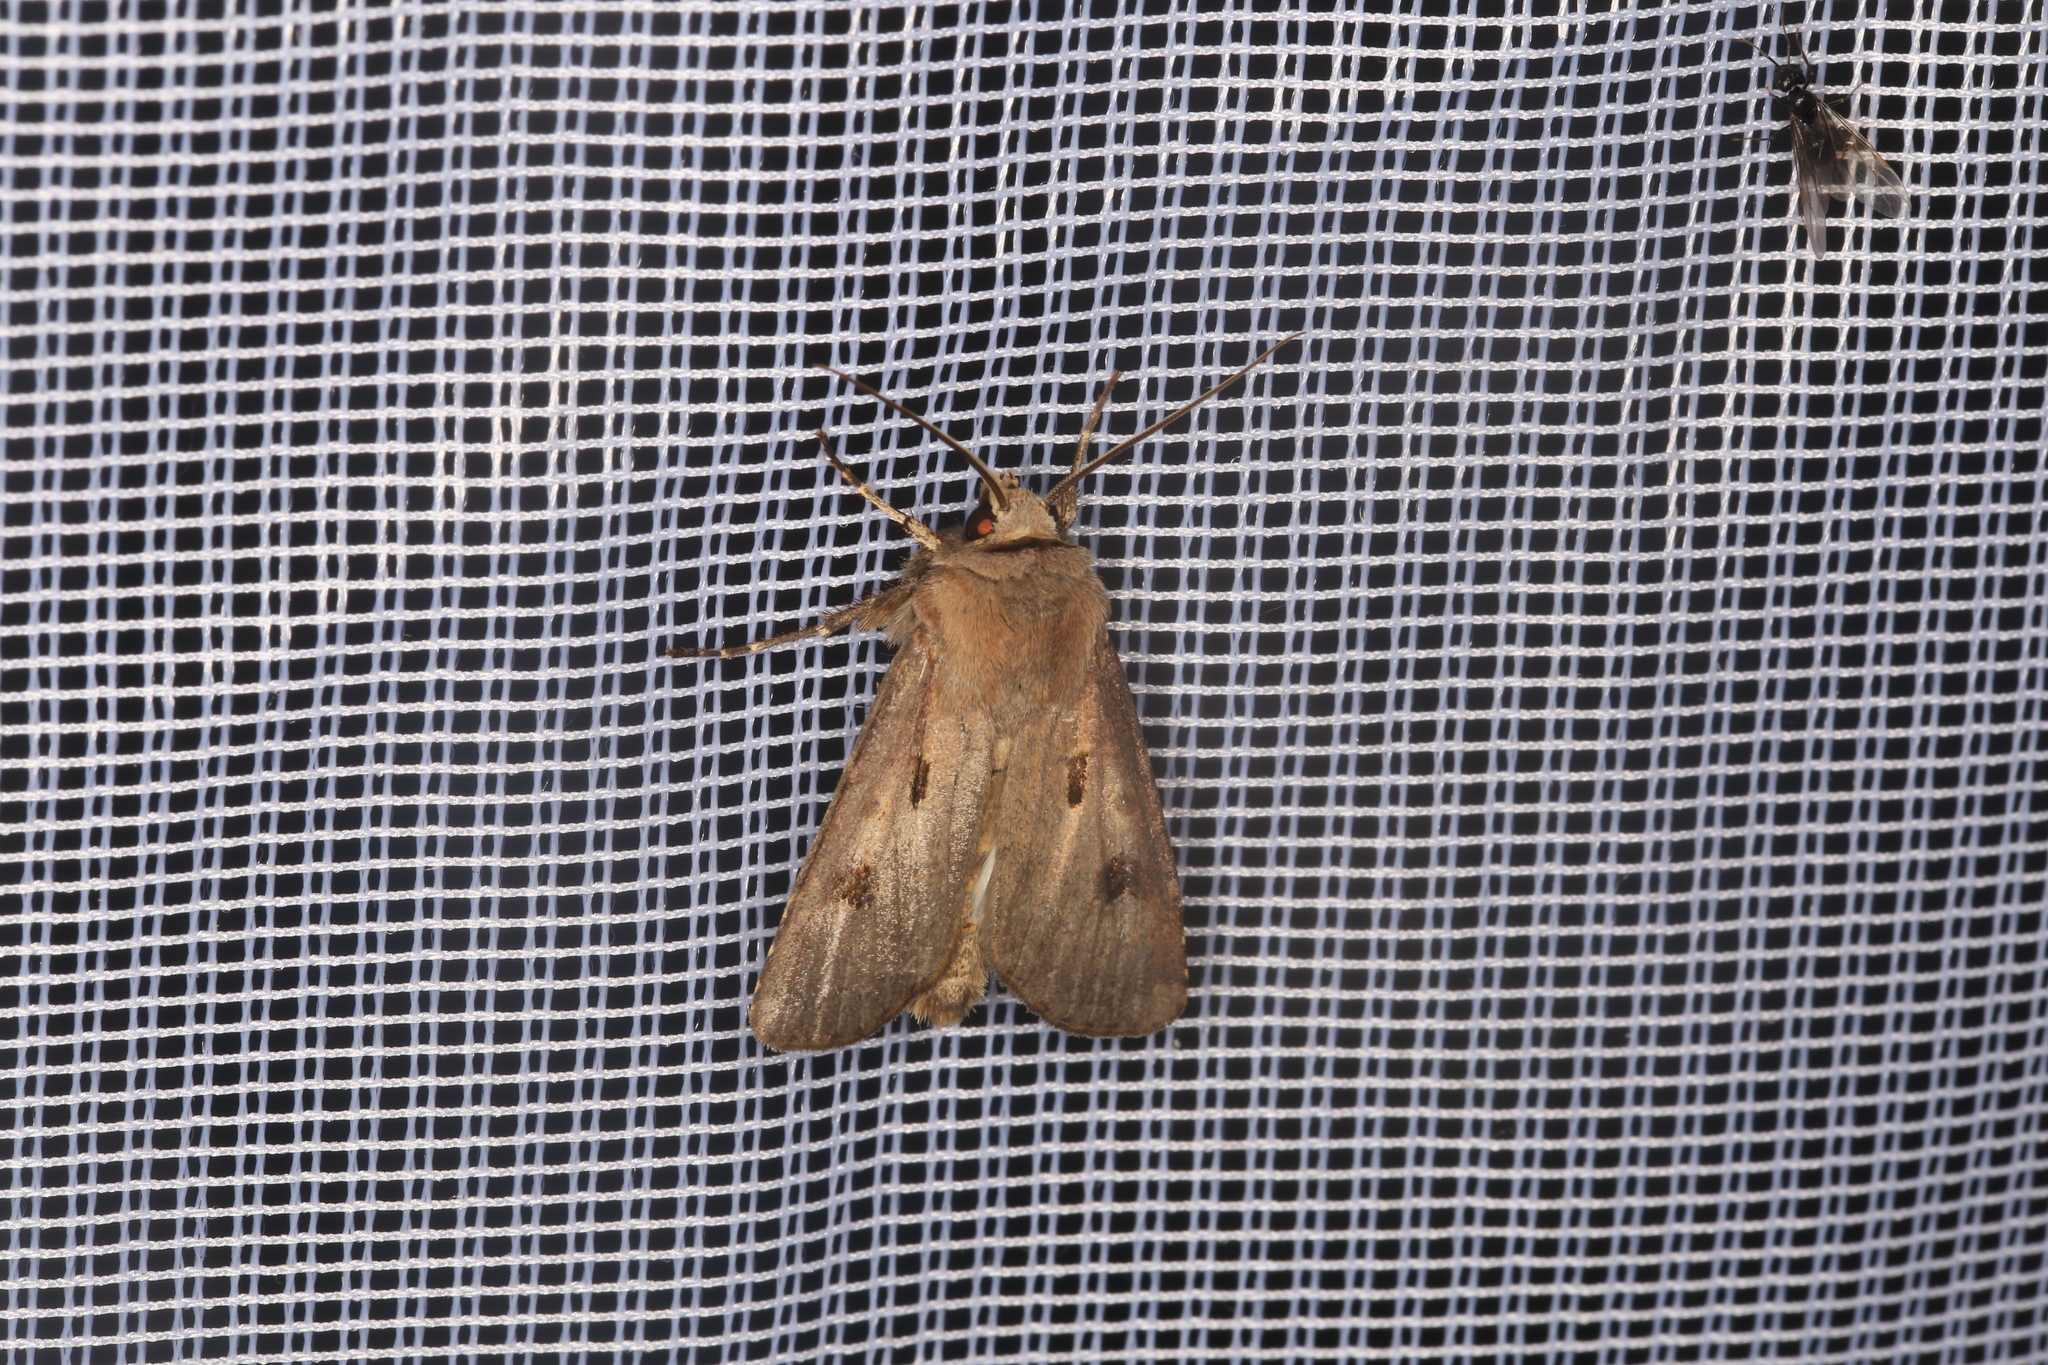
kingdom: Animalia
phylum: Arthropoda
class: Insecta
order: Lepidoptera
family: Noctuidae
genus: Agrotis
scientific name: Agrotis exclamationis
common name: Heart and dart
